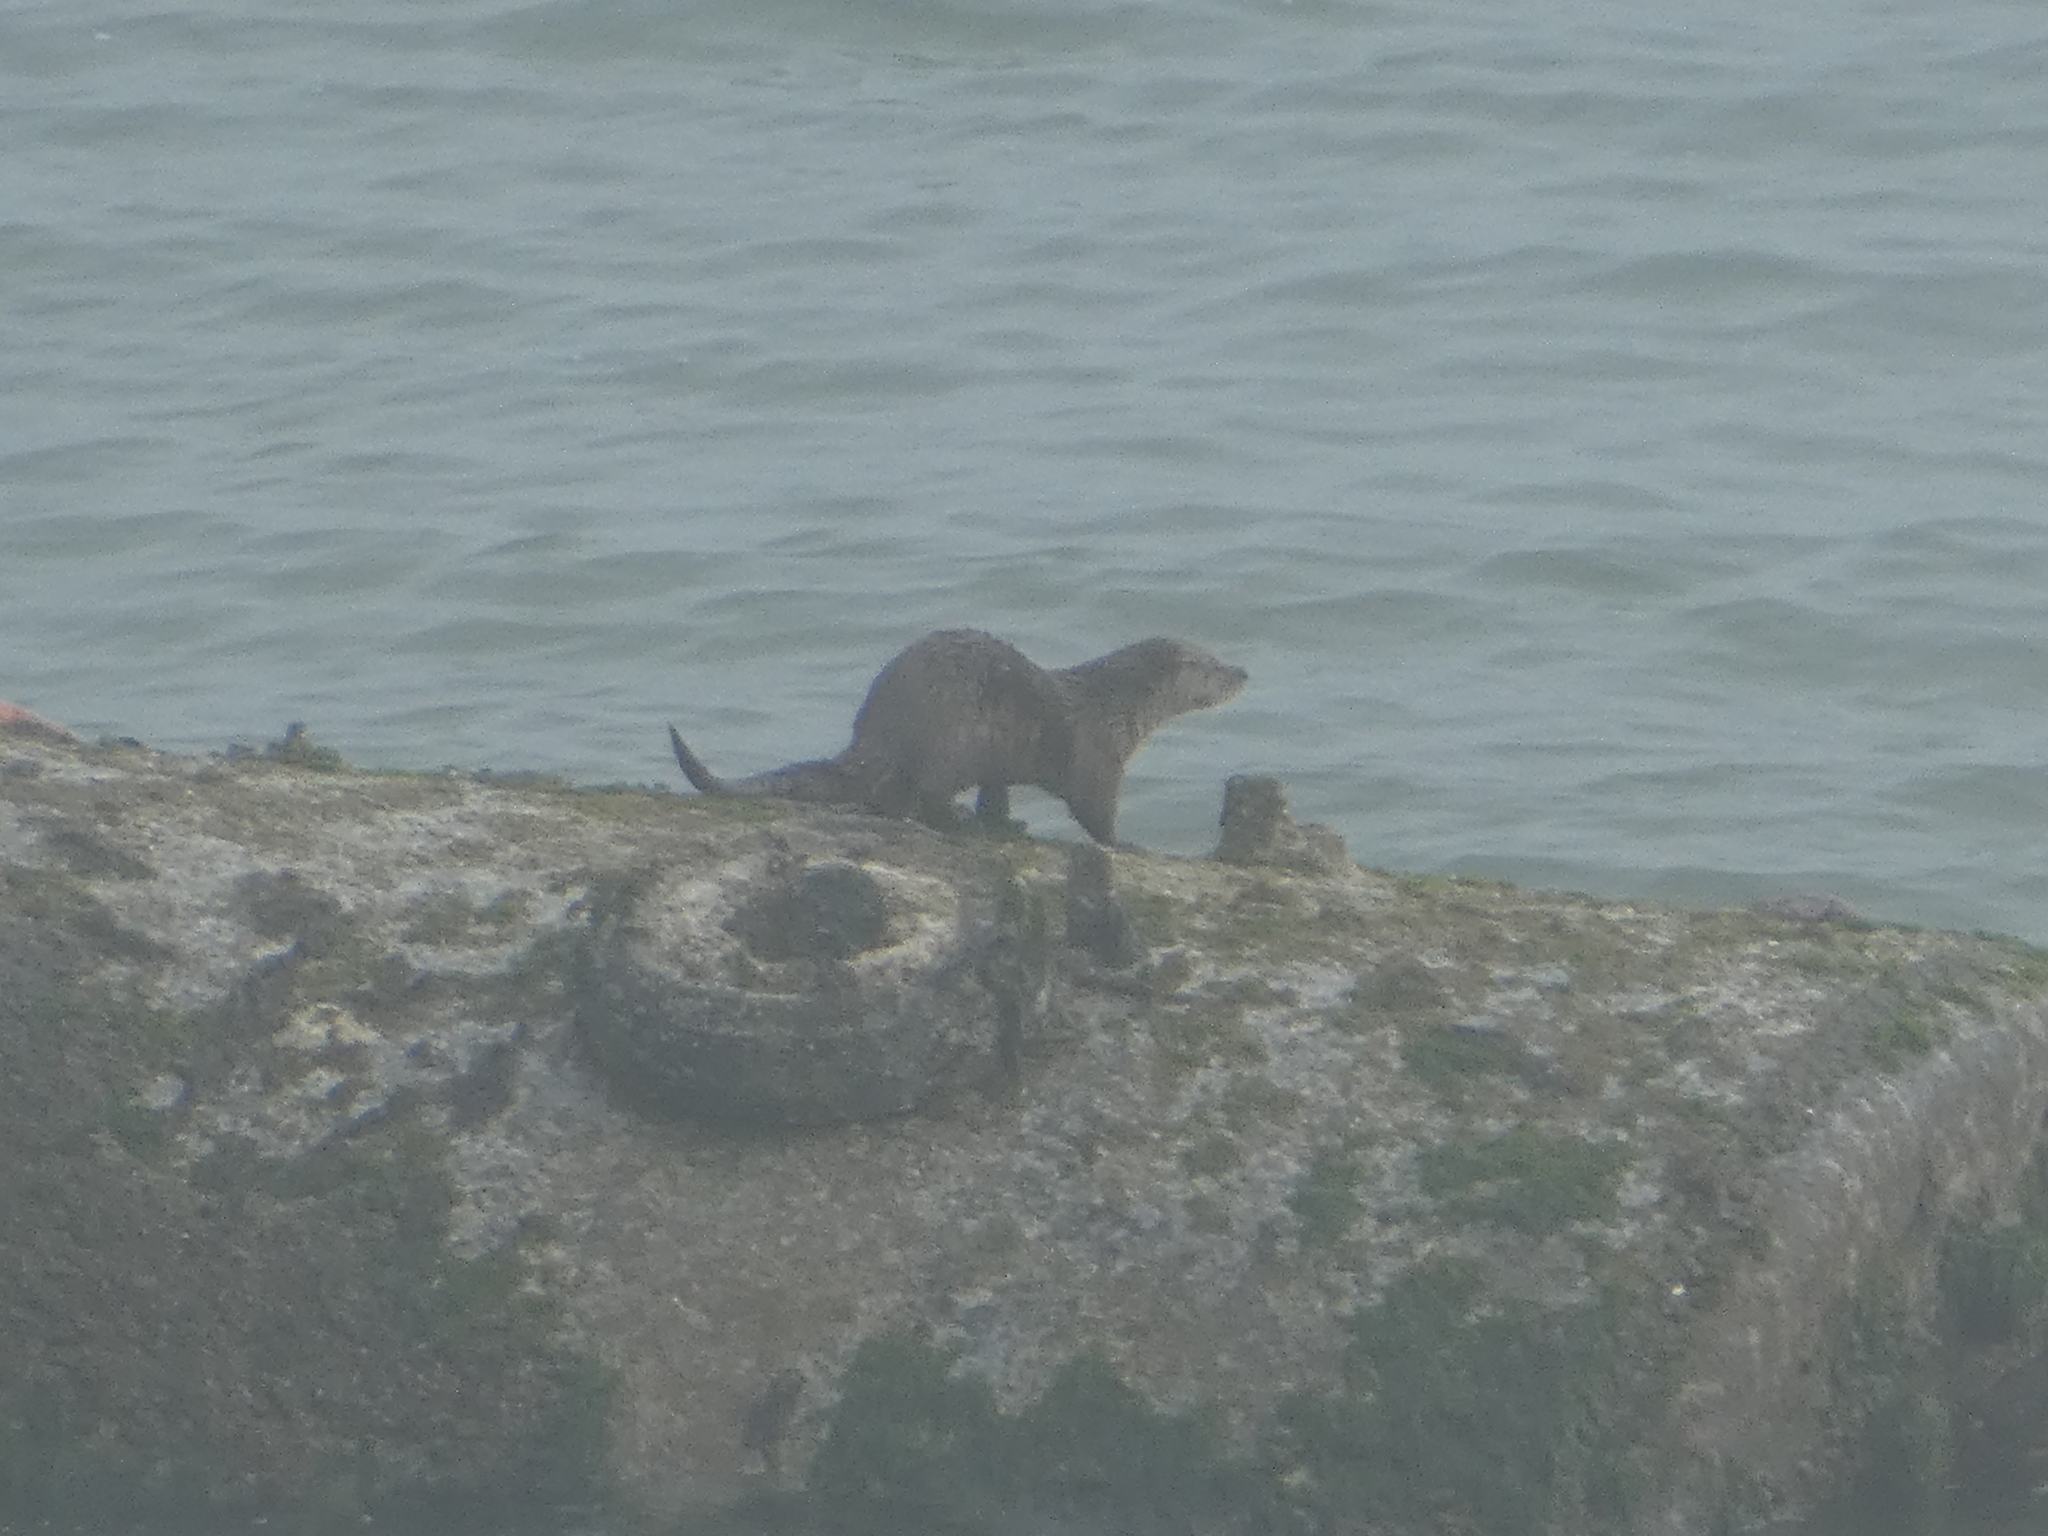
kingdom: Animalia
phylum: Chordata
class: Mammalia
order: Carnivora
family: Mustelidae
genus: Lontra
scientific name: Lontra canadensis
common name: North american river otter
